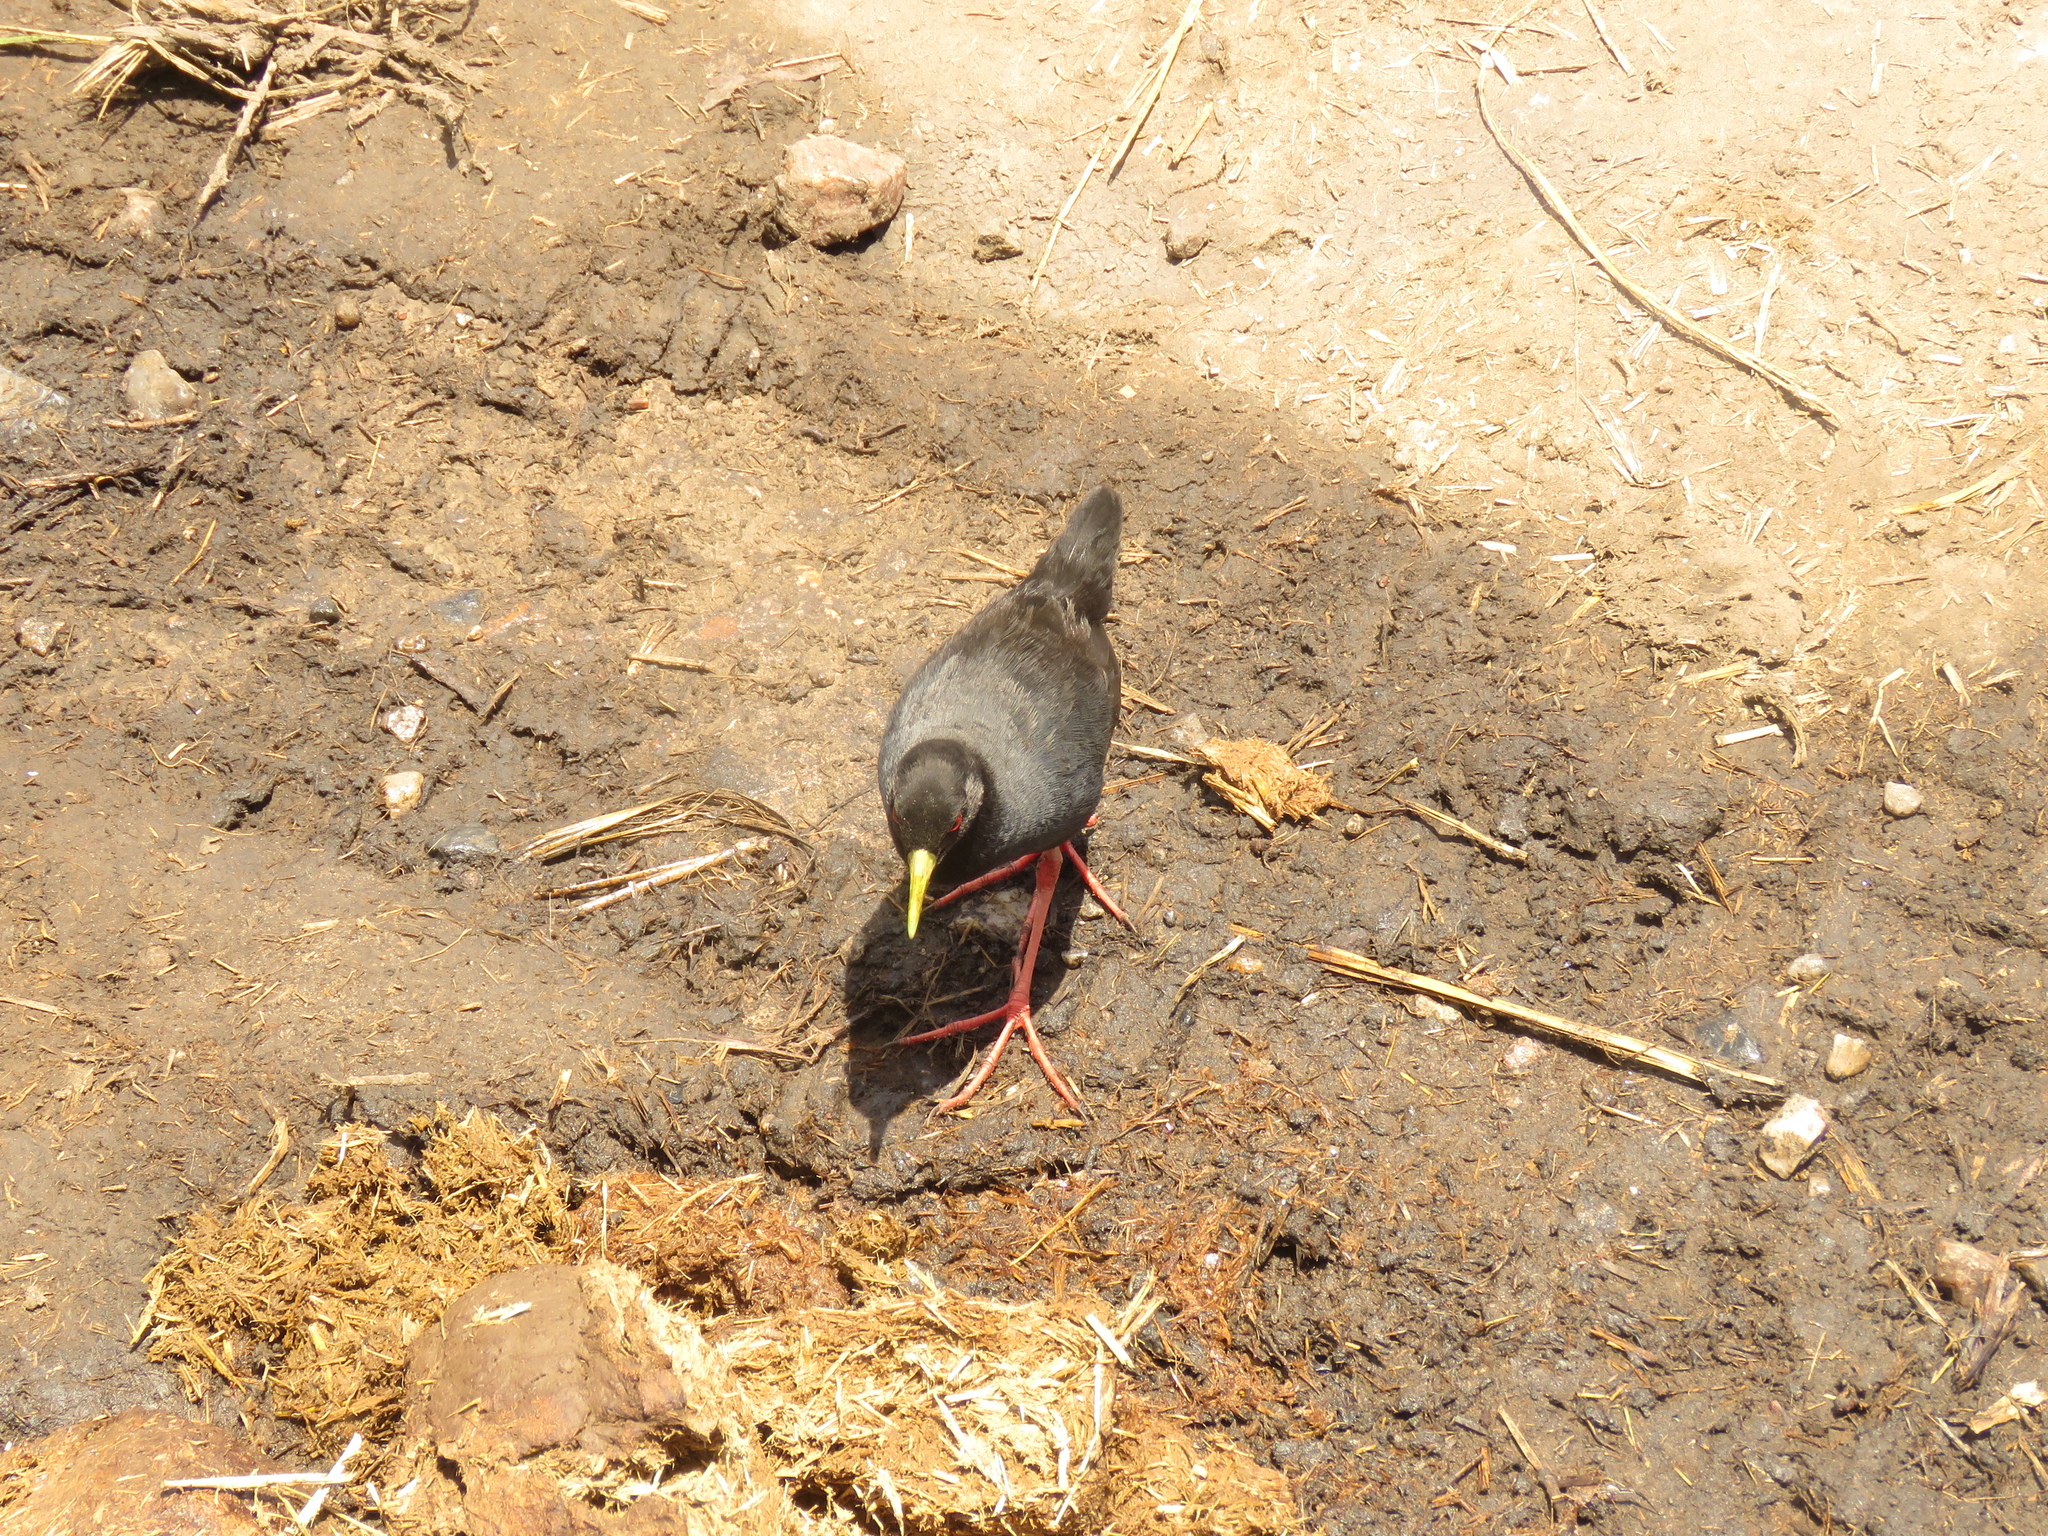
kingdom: Animalia
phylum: Chordata
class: Aves
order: Gruiformes
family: Rallidae
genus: Amaurornis
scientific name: Amaurornis flavirostra
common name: Black crake
